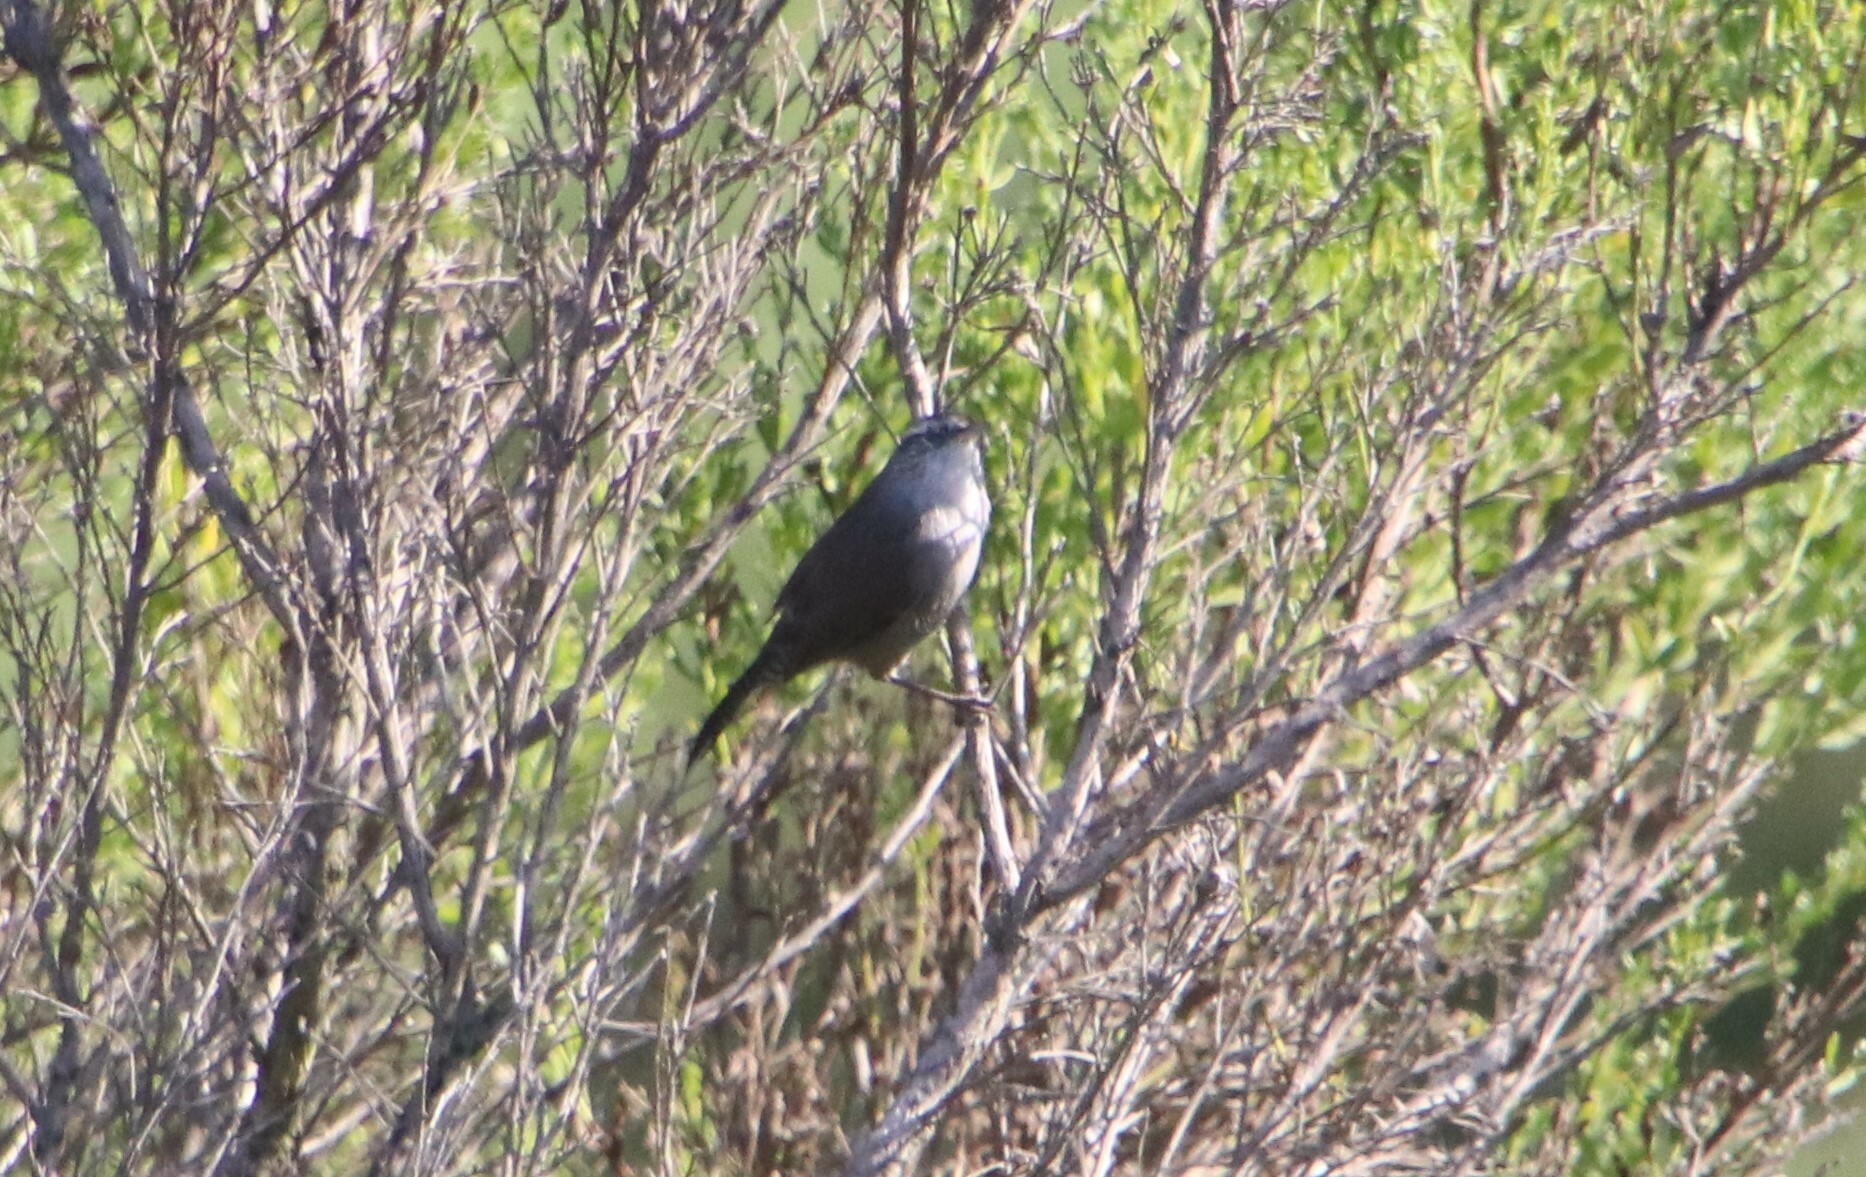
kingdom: Animalia
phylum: Chordata
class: Aves
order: Passeriformes
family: Troglodytidae
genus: Thryomanes
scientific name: Thryomanes bewickii
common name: Bewick's wren
